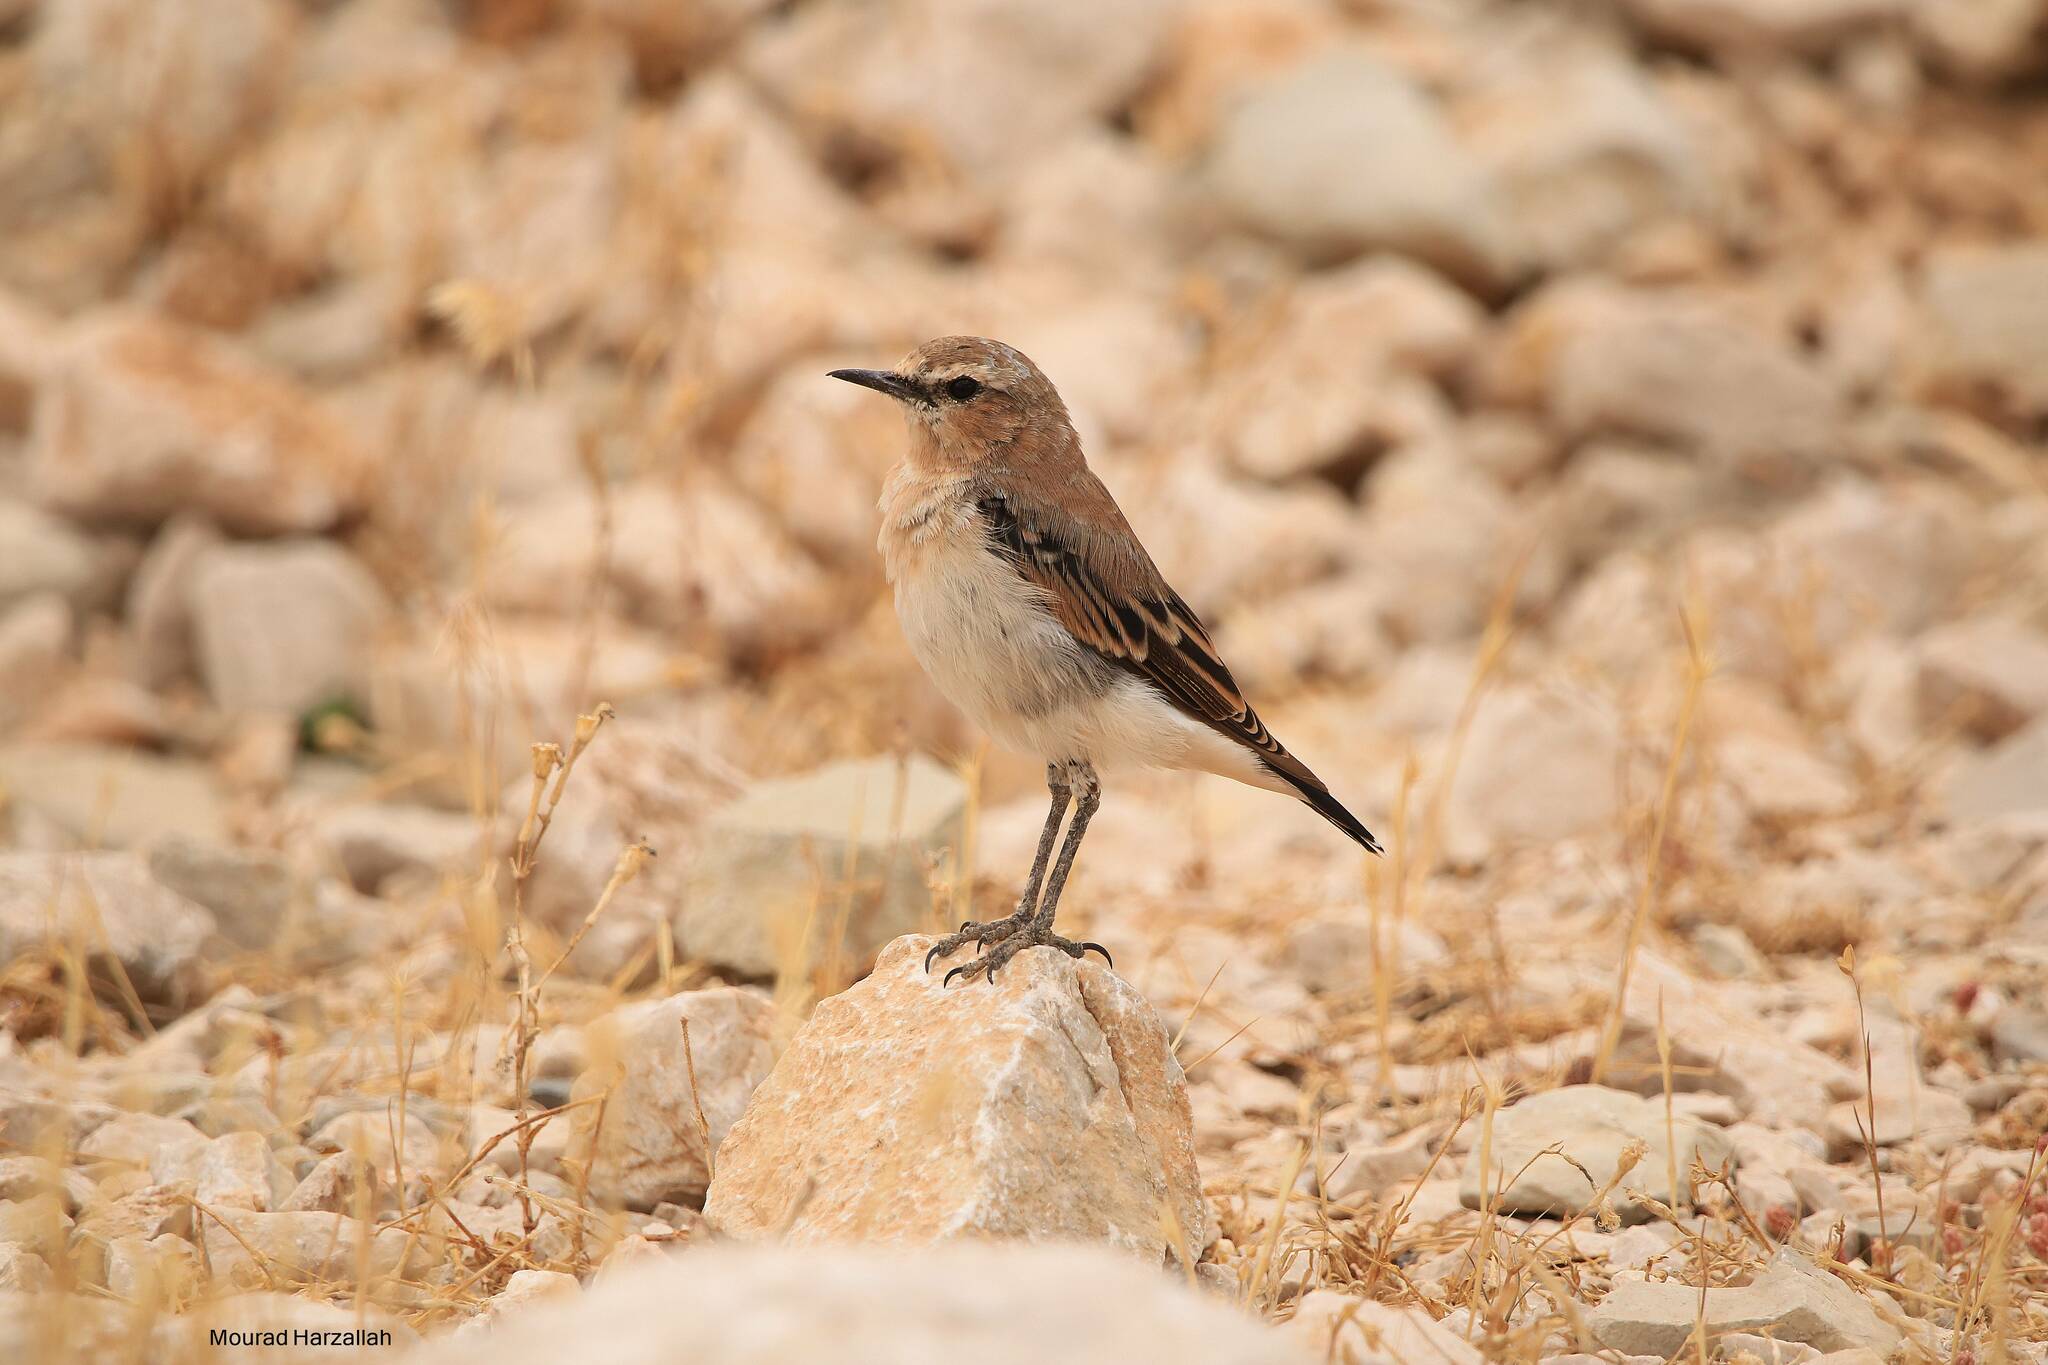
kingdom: Animalia
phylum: Chordata
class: Aves
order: Passeriformes
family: Muscicapidae
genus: Oenanthe
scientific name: Oenanthe oenanthe
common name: Northern wheatear
